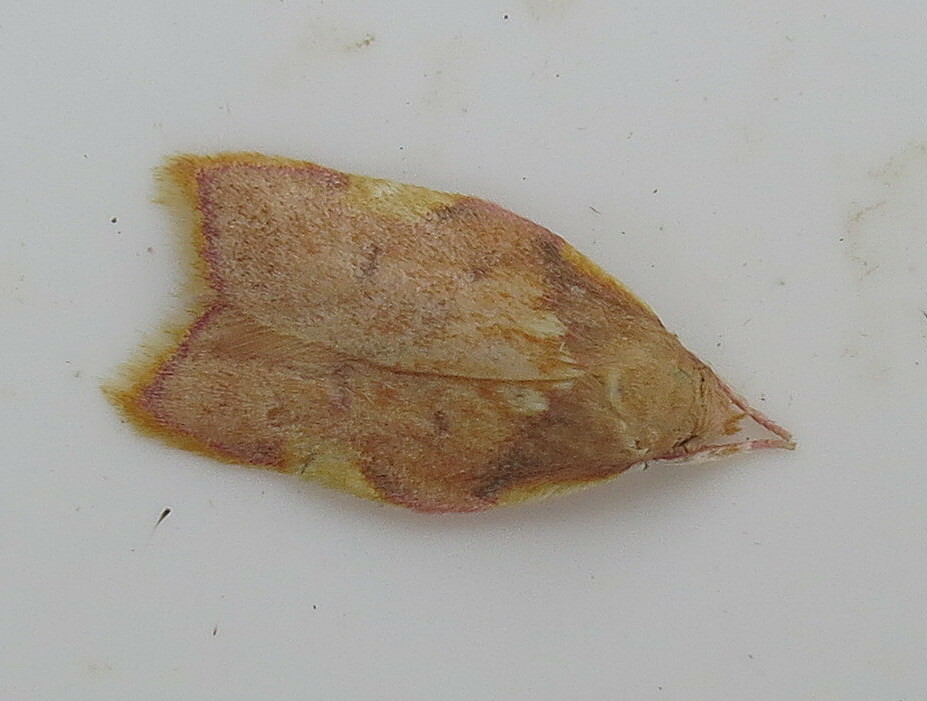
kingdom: Animalia
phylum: Arthropoda
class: Insecta
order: Lepidoptera
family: Peleopodidae
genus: Carcina
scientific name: Carcina quercana
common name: Moth
